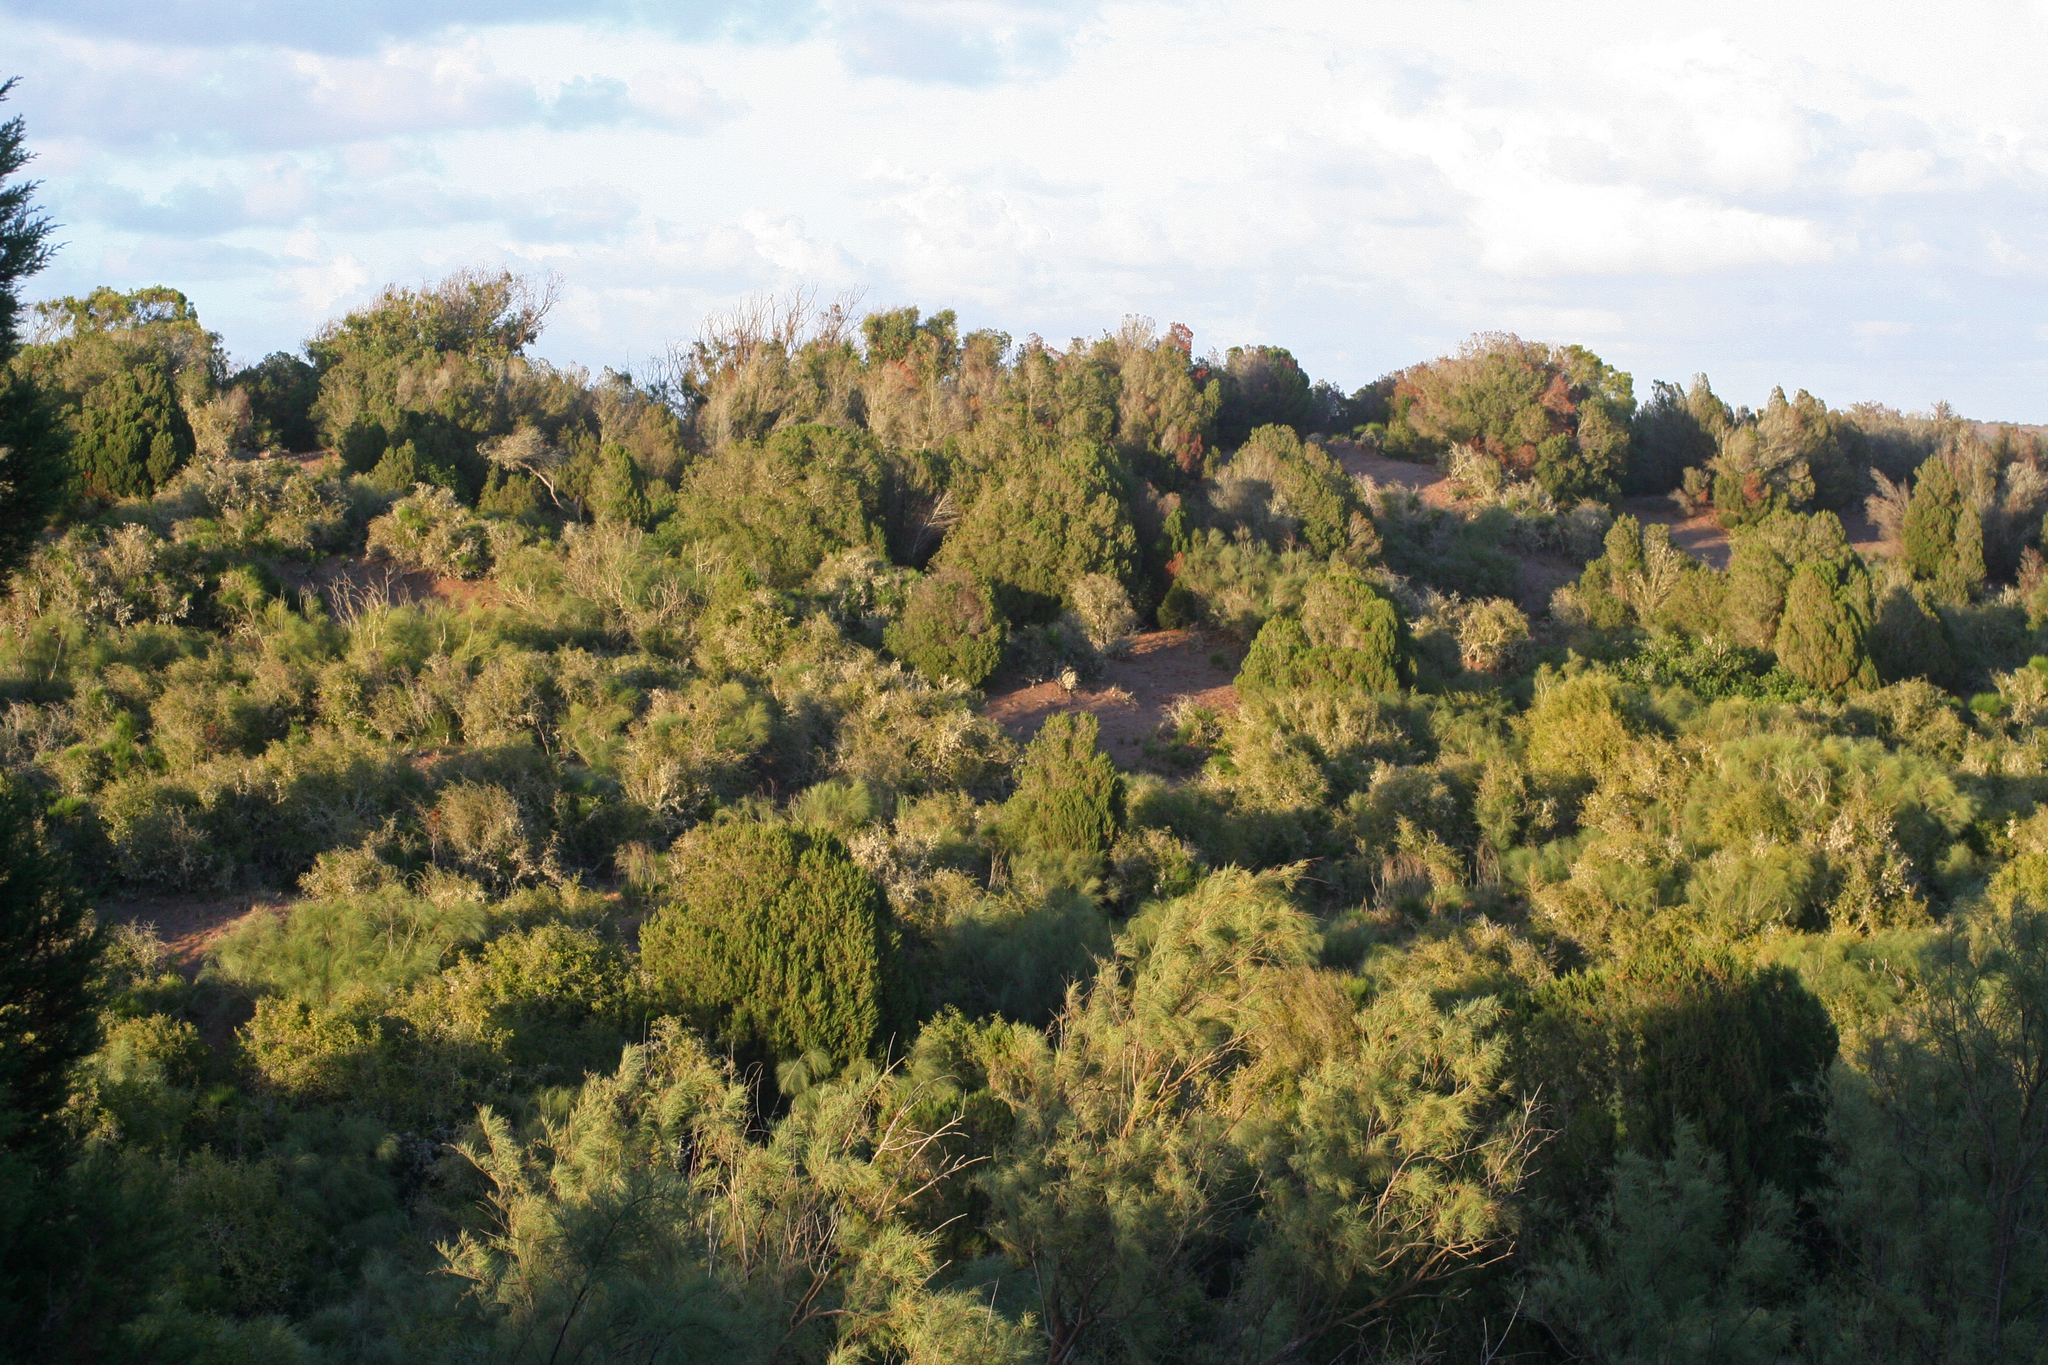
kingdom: Plantae
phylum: Tracheophyta
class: Pinopsida
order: Pinales
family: Cupressaceae
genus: Juniperus
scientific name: Juniperus phoenicea
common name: Phoenician juniper
